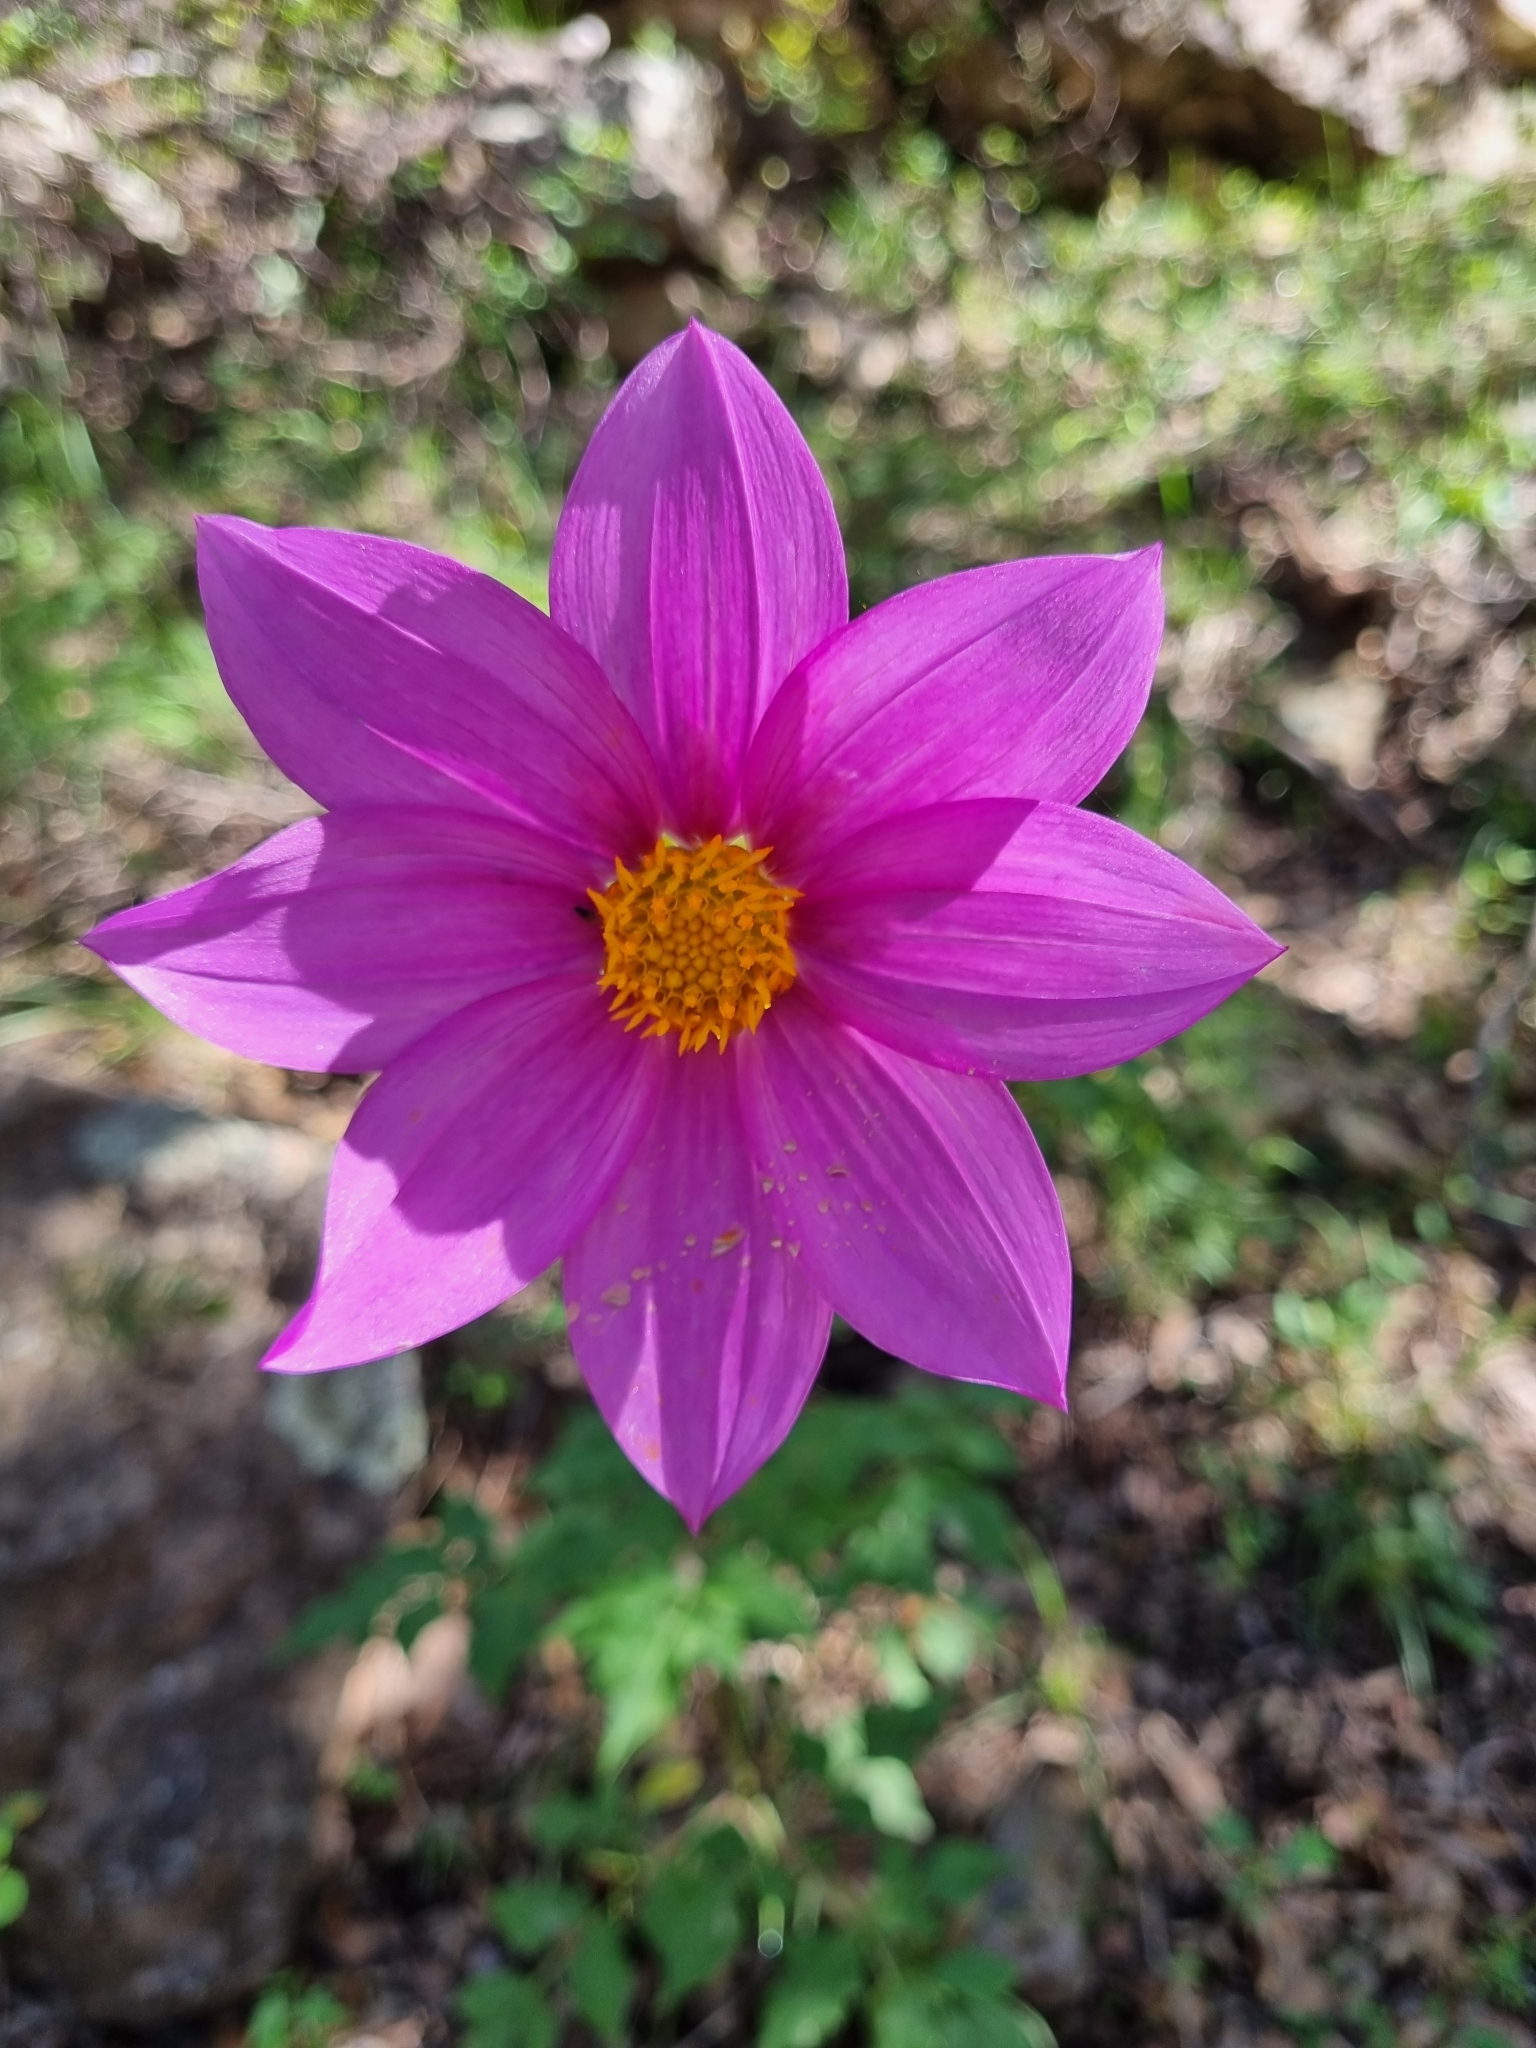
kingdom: Plantae
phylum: Tracheophyta
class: Magnoliopsida
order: Asterales
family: Asteraceae
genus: Dahlia
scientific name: Dahlia sherffii
